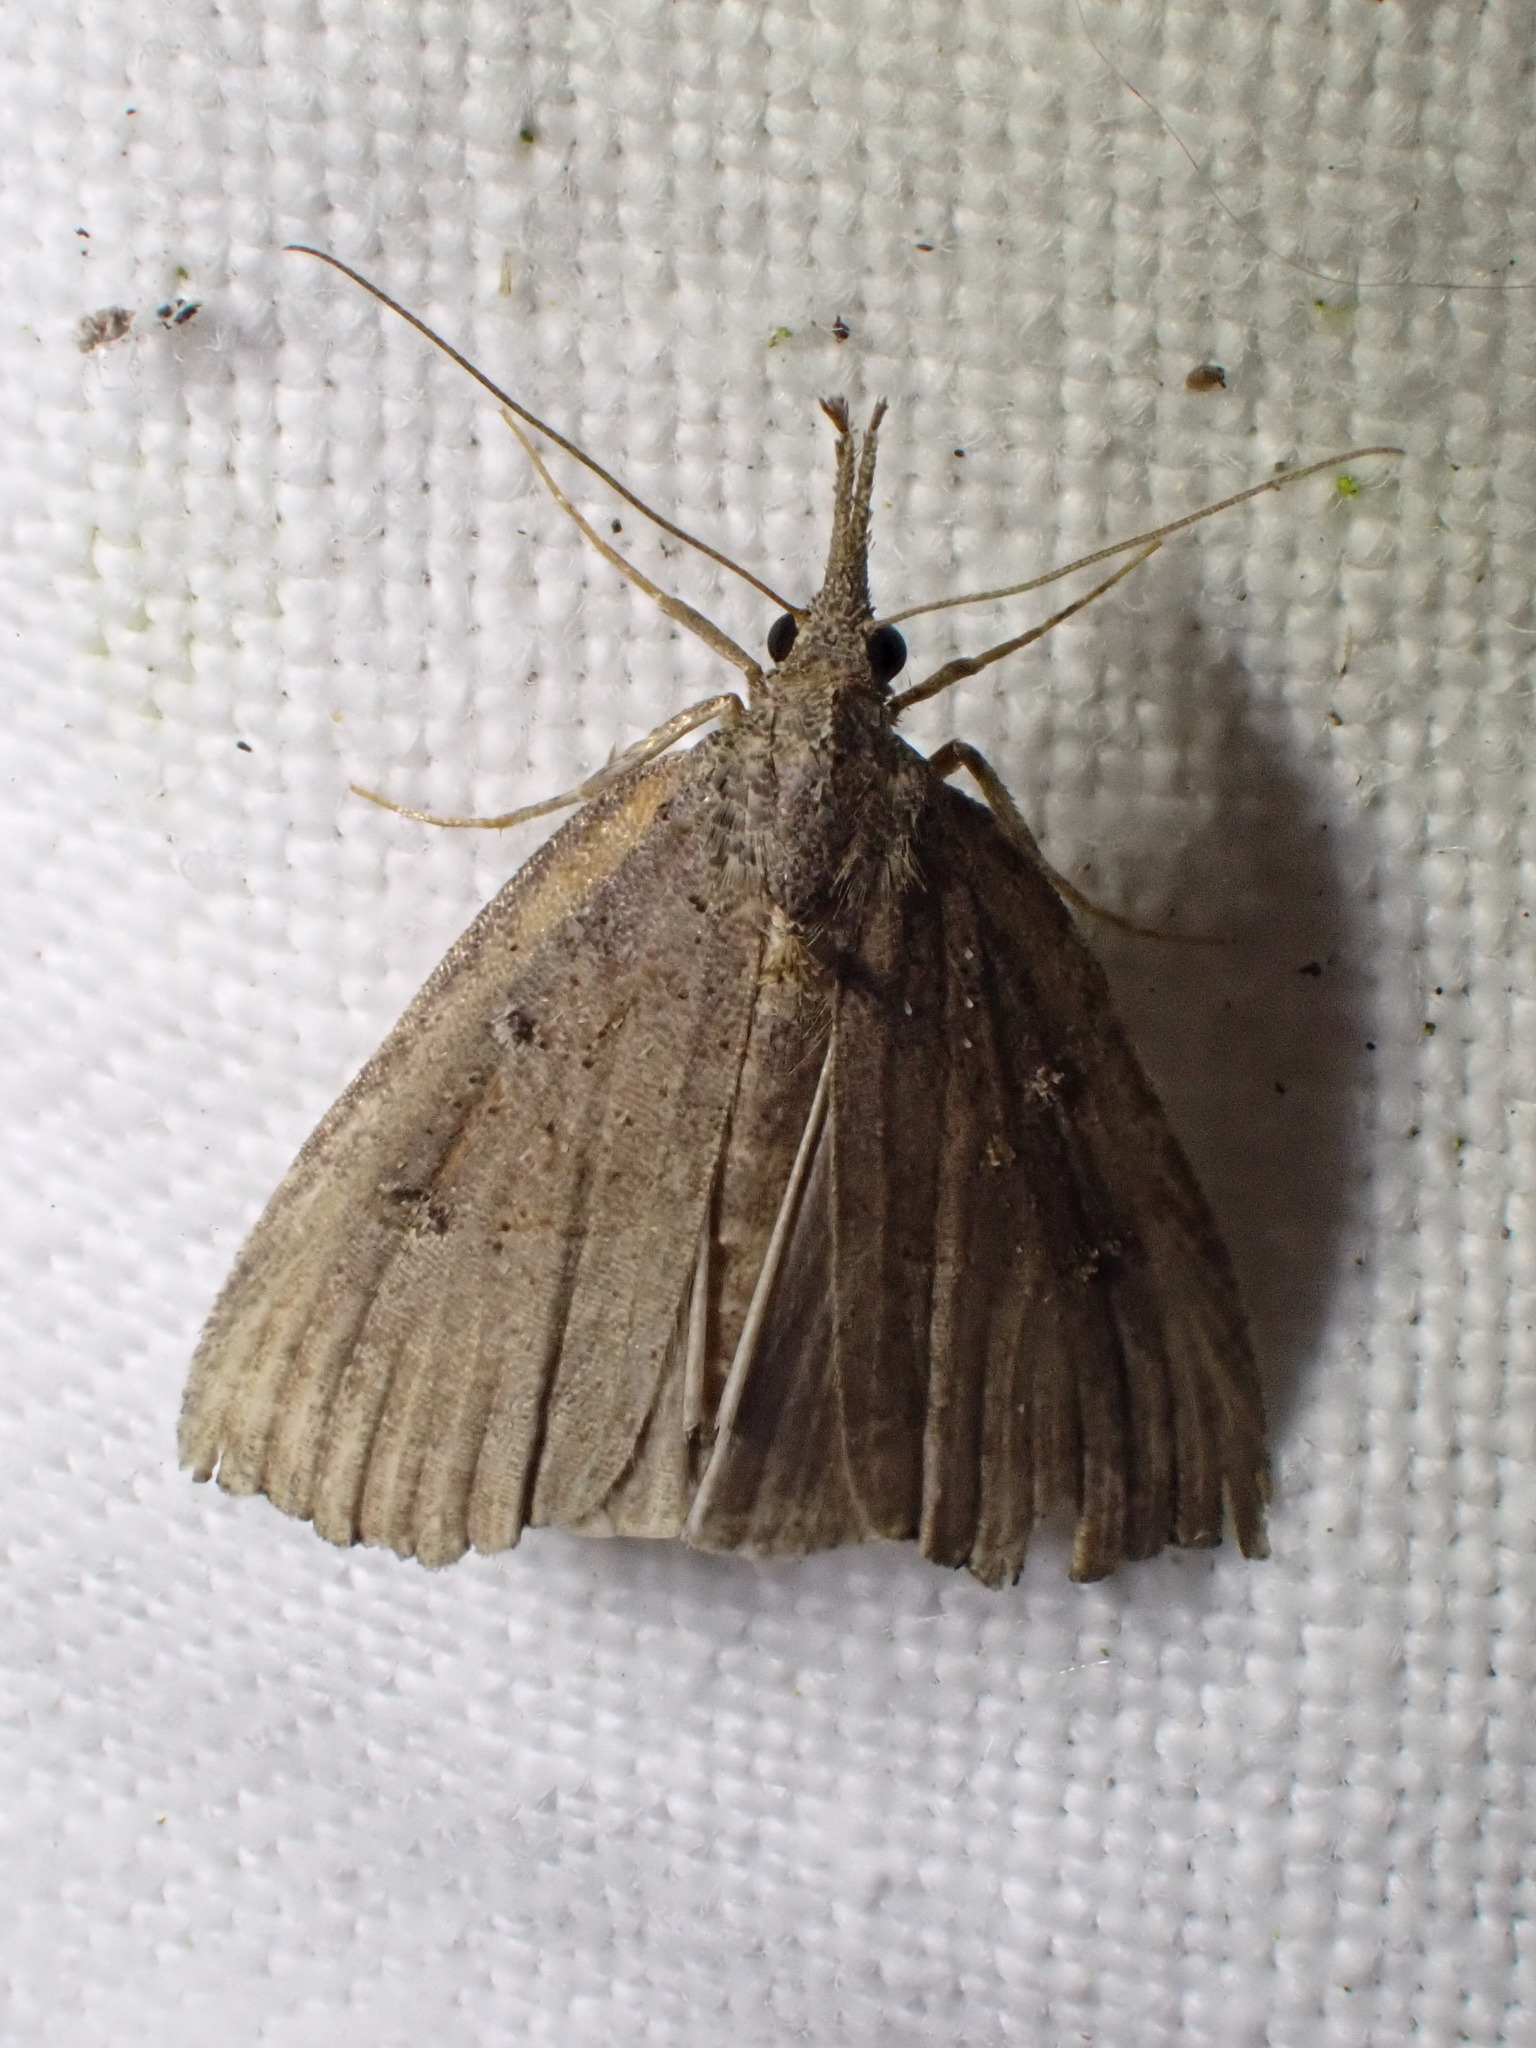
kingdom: Animalia
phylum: Arthropoda
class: Insecta
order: Lepidoptera
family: Erebidae
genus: Hypena
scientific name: Hypena rostralis
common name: Buttoned snout
